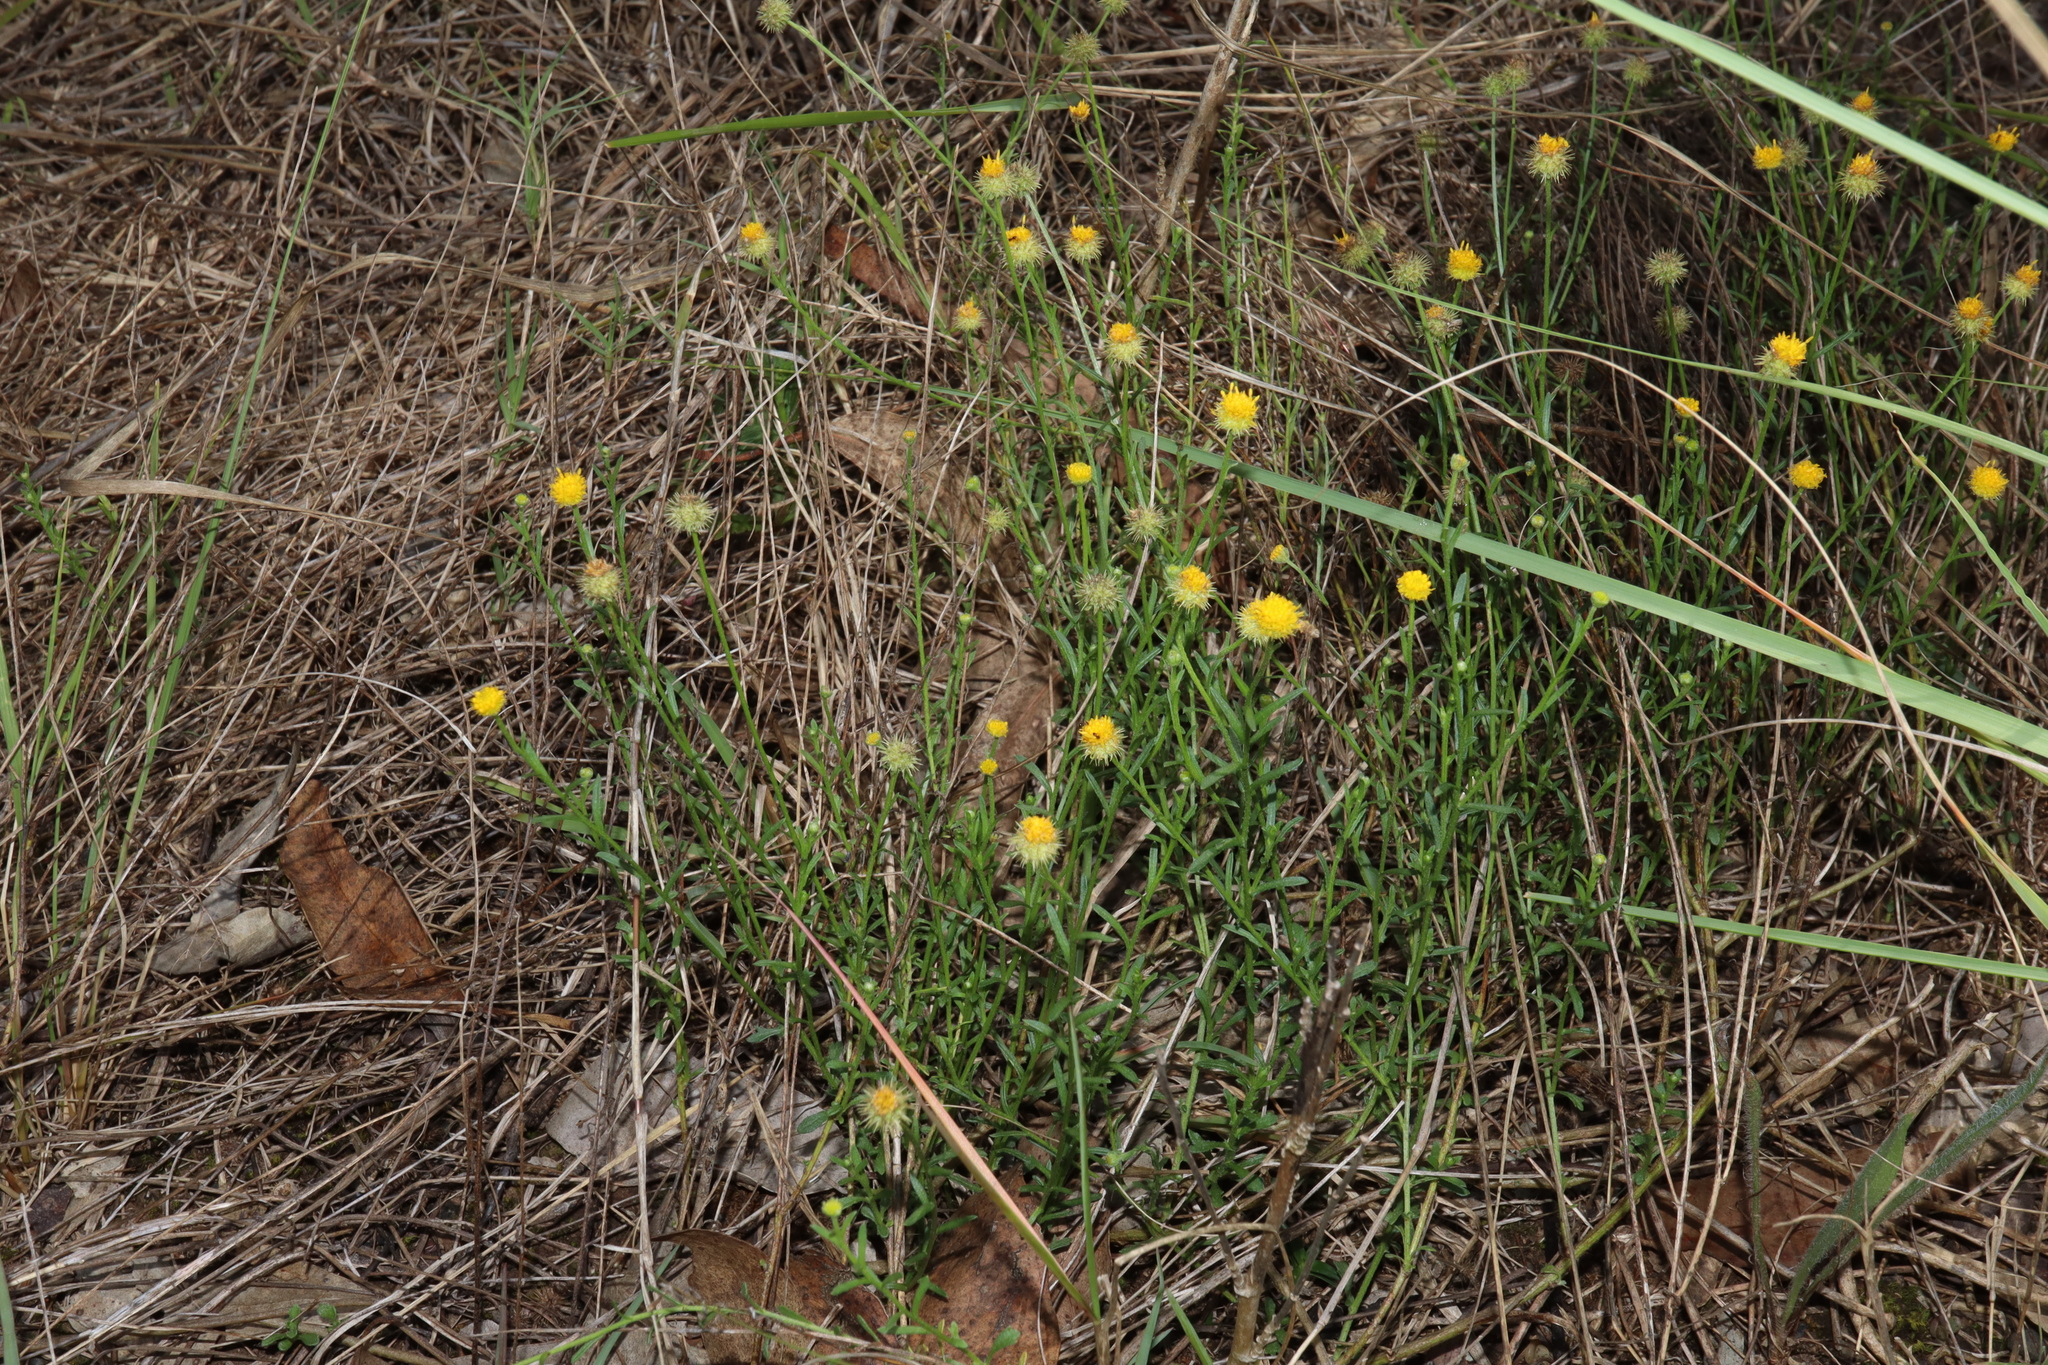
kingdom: Plantae
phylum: Tracheophyta
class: Magnoliopsida
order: Asterales
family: Asteraceae
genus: Calotis
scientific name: Calotis lappulacea
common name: Bur daisy
